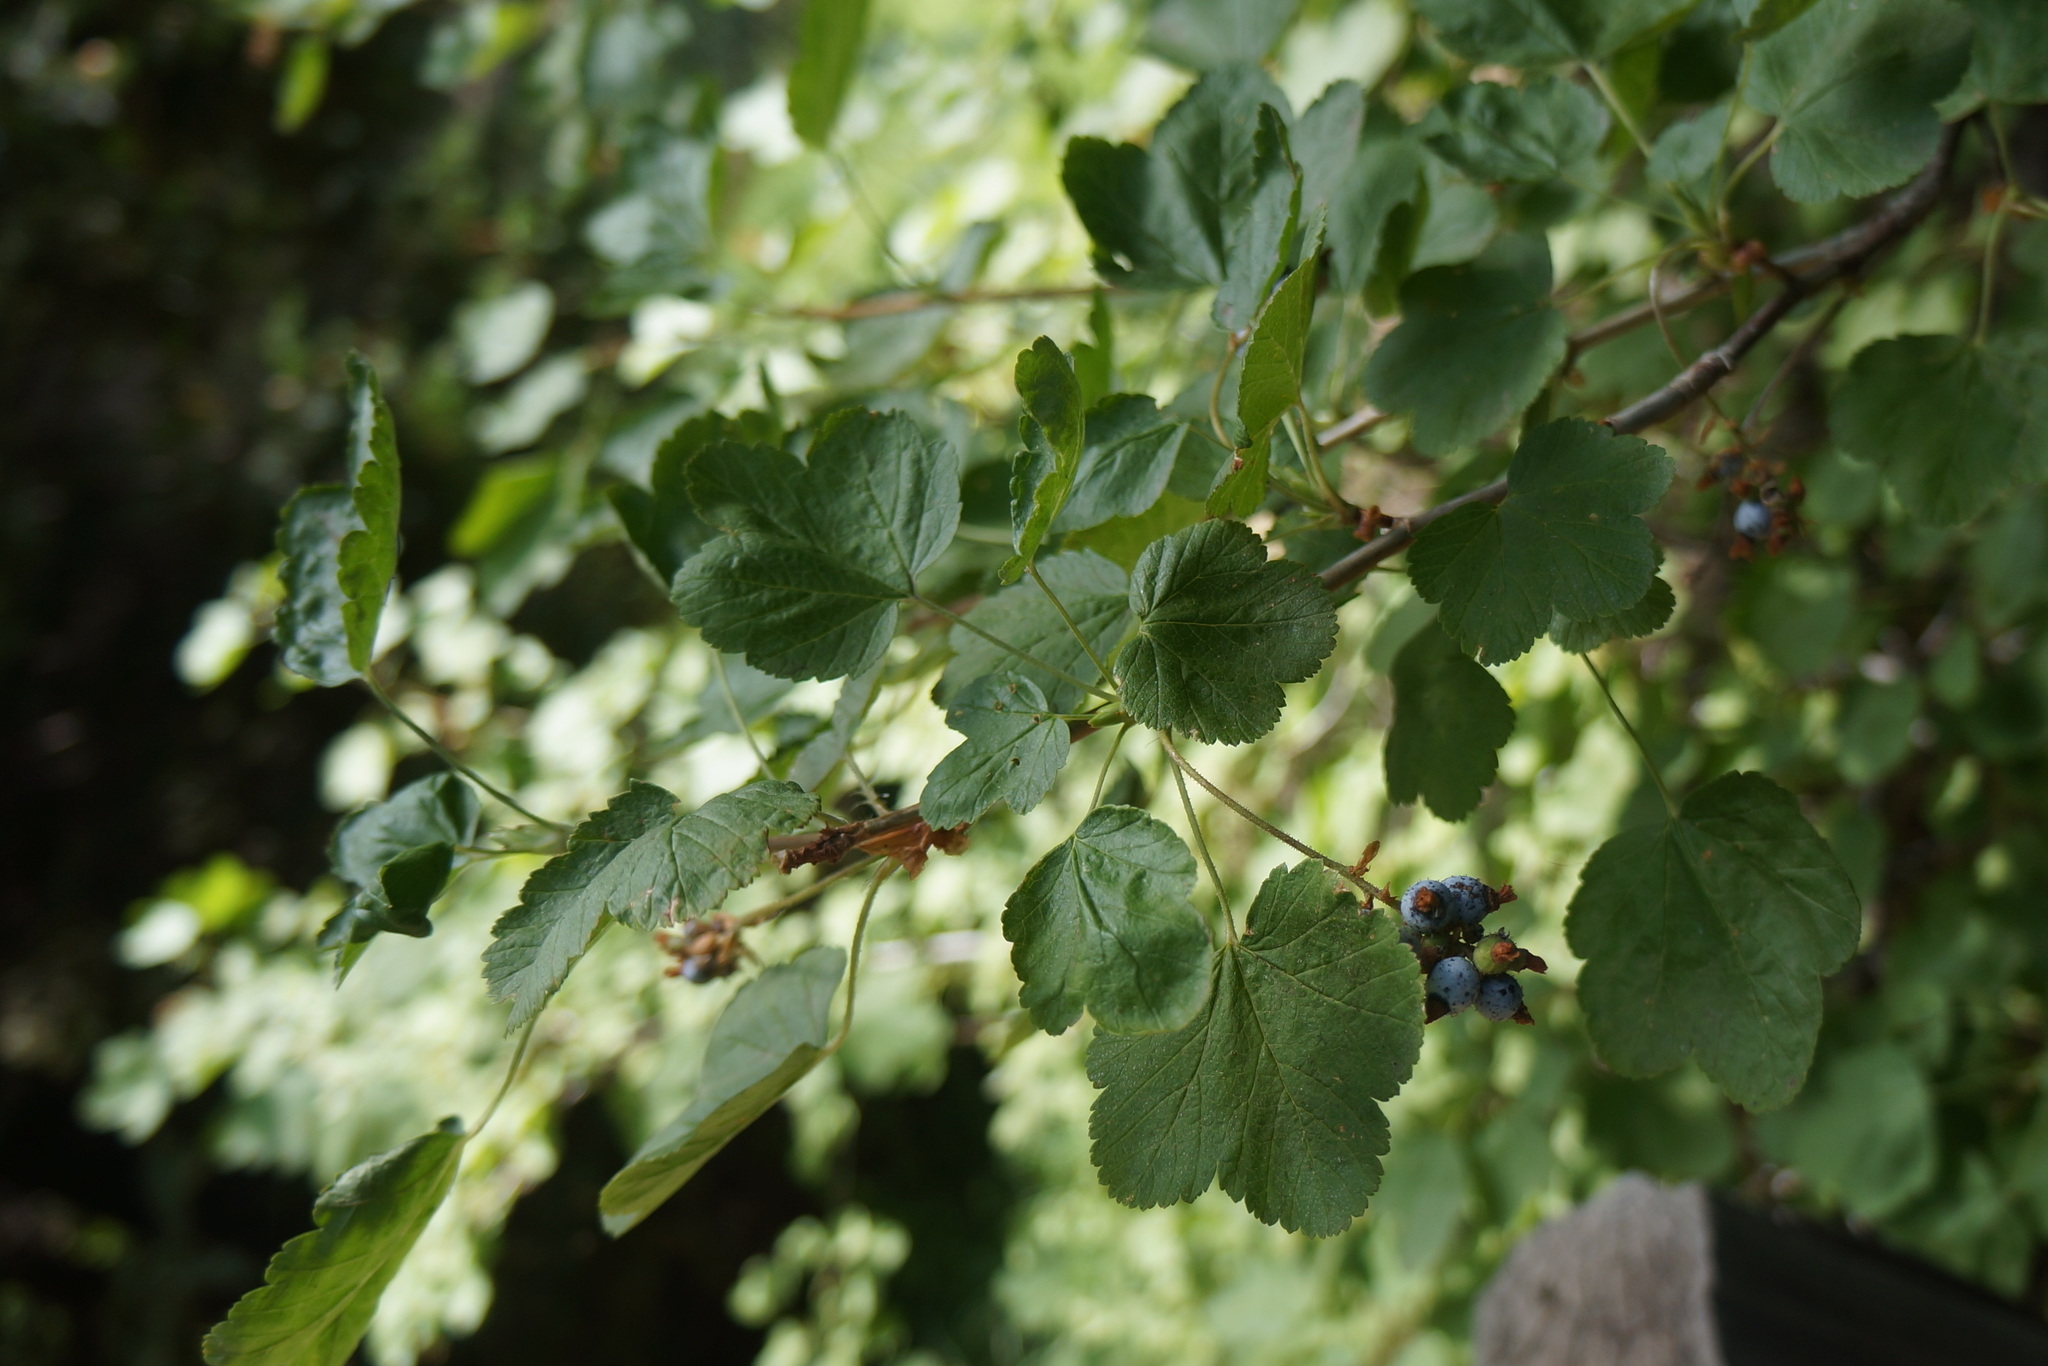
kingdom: Plantae
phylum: Tracheophyta
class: Magnoliopsida
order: Saxifragales
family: Grossulariaceae
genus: Ribes
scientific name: Ribes nevadense
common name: Mountain pink currant
